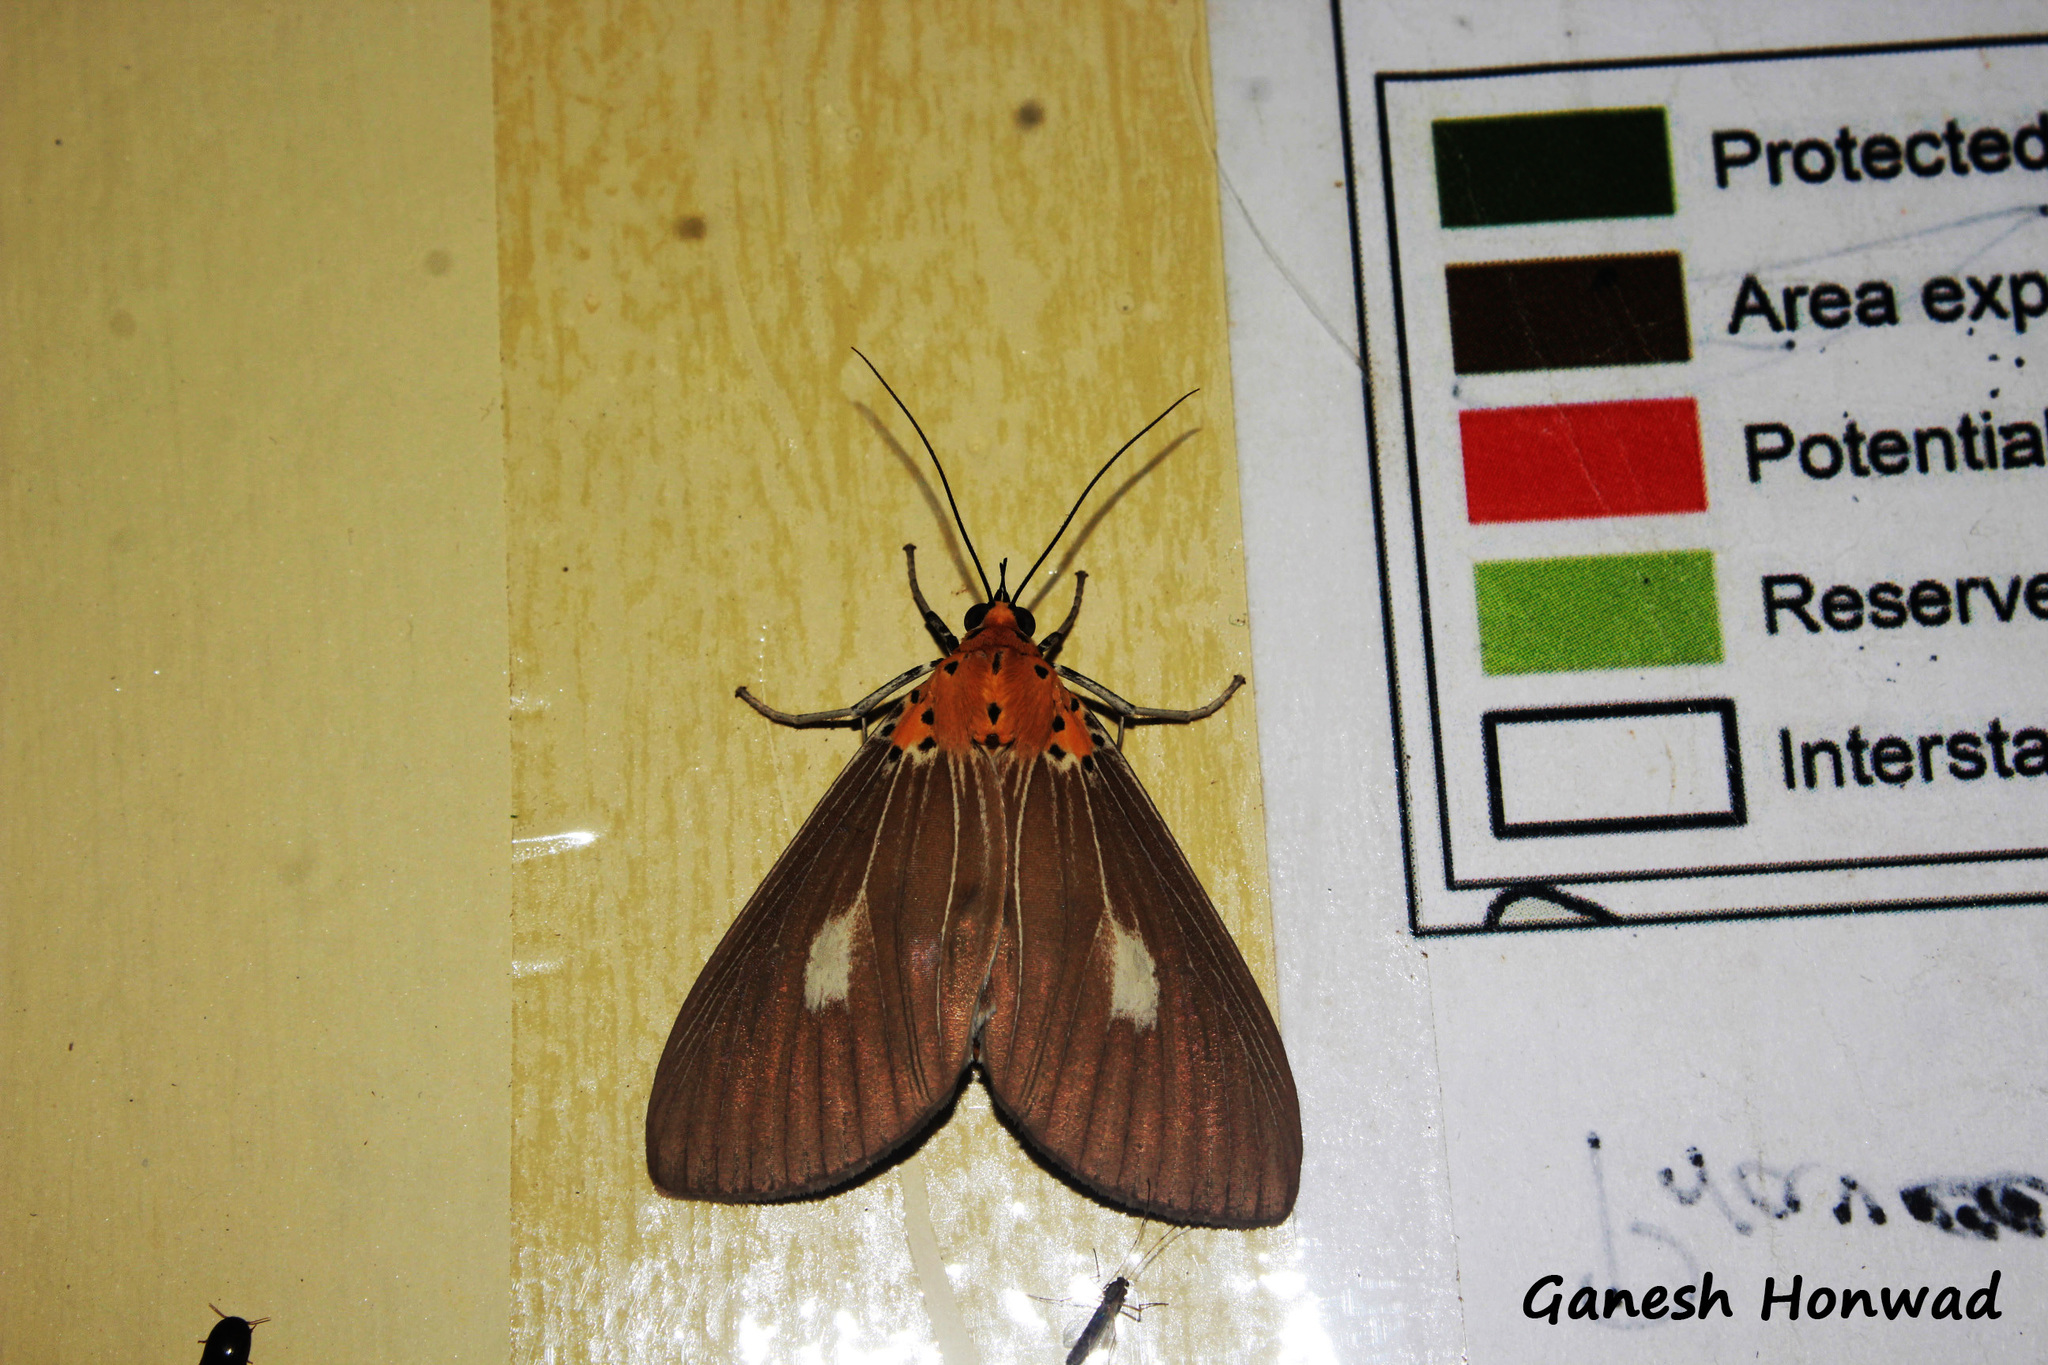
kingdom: Animalia
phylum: Arthropoda
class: Insecta
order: Lepidoptera
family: Erebidae
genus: Asota
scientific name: Asota canaraica
